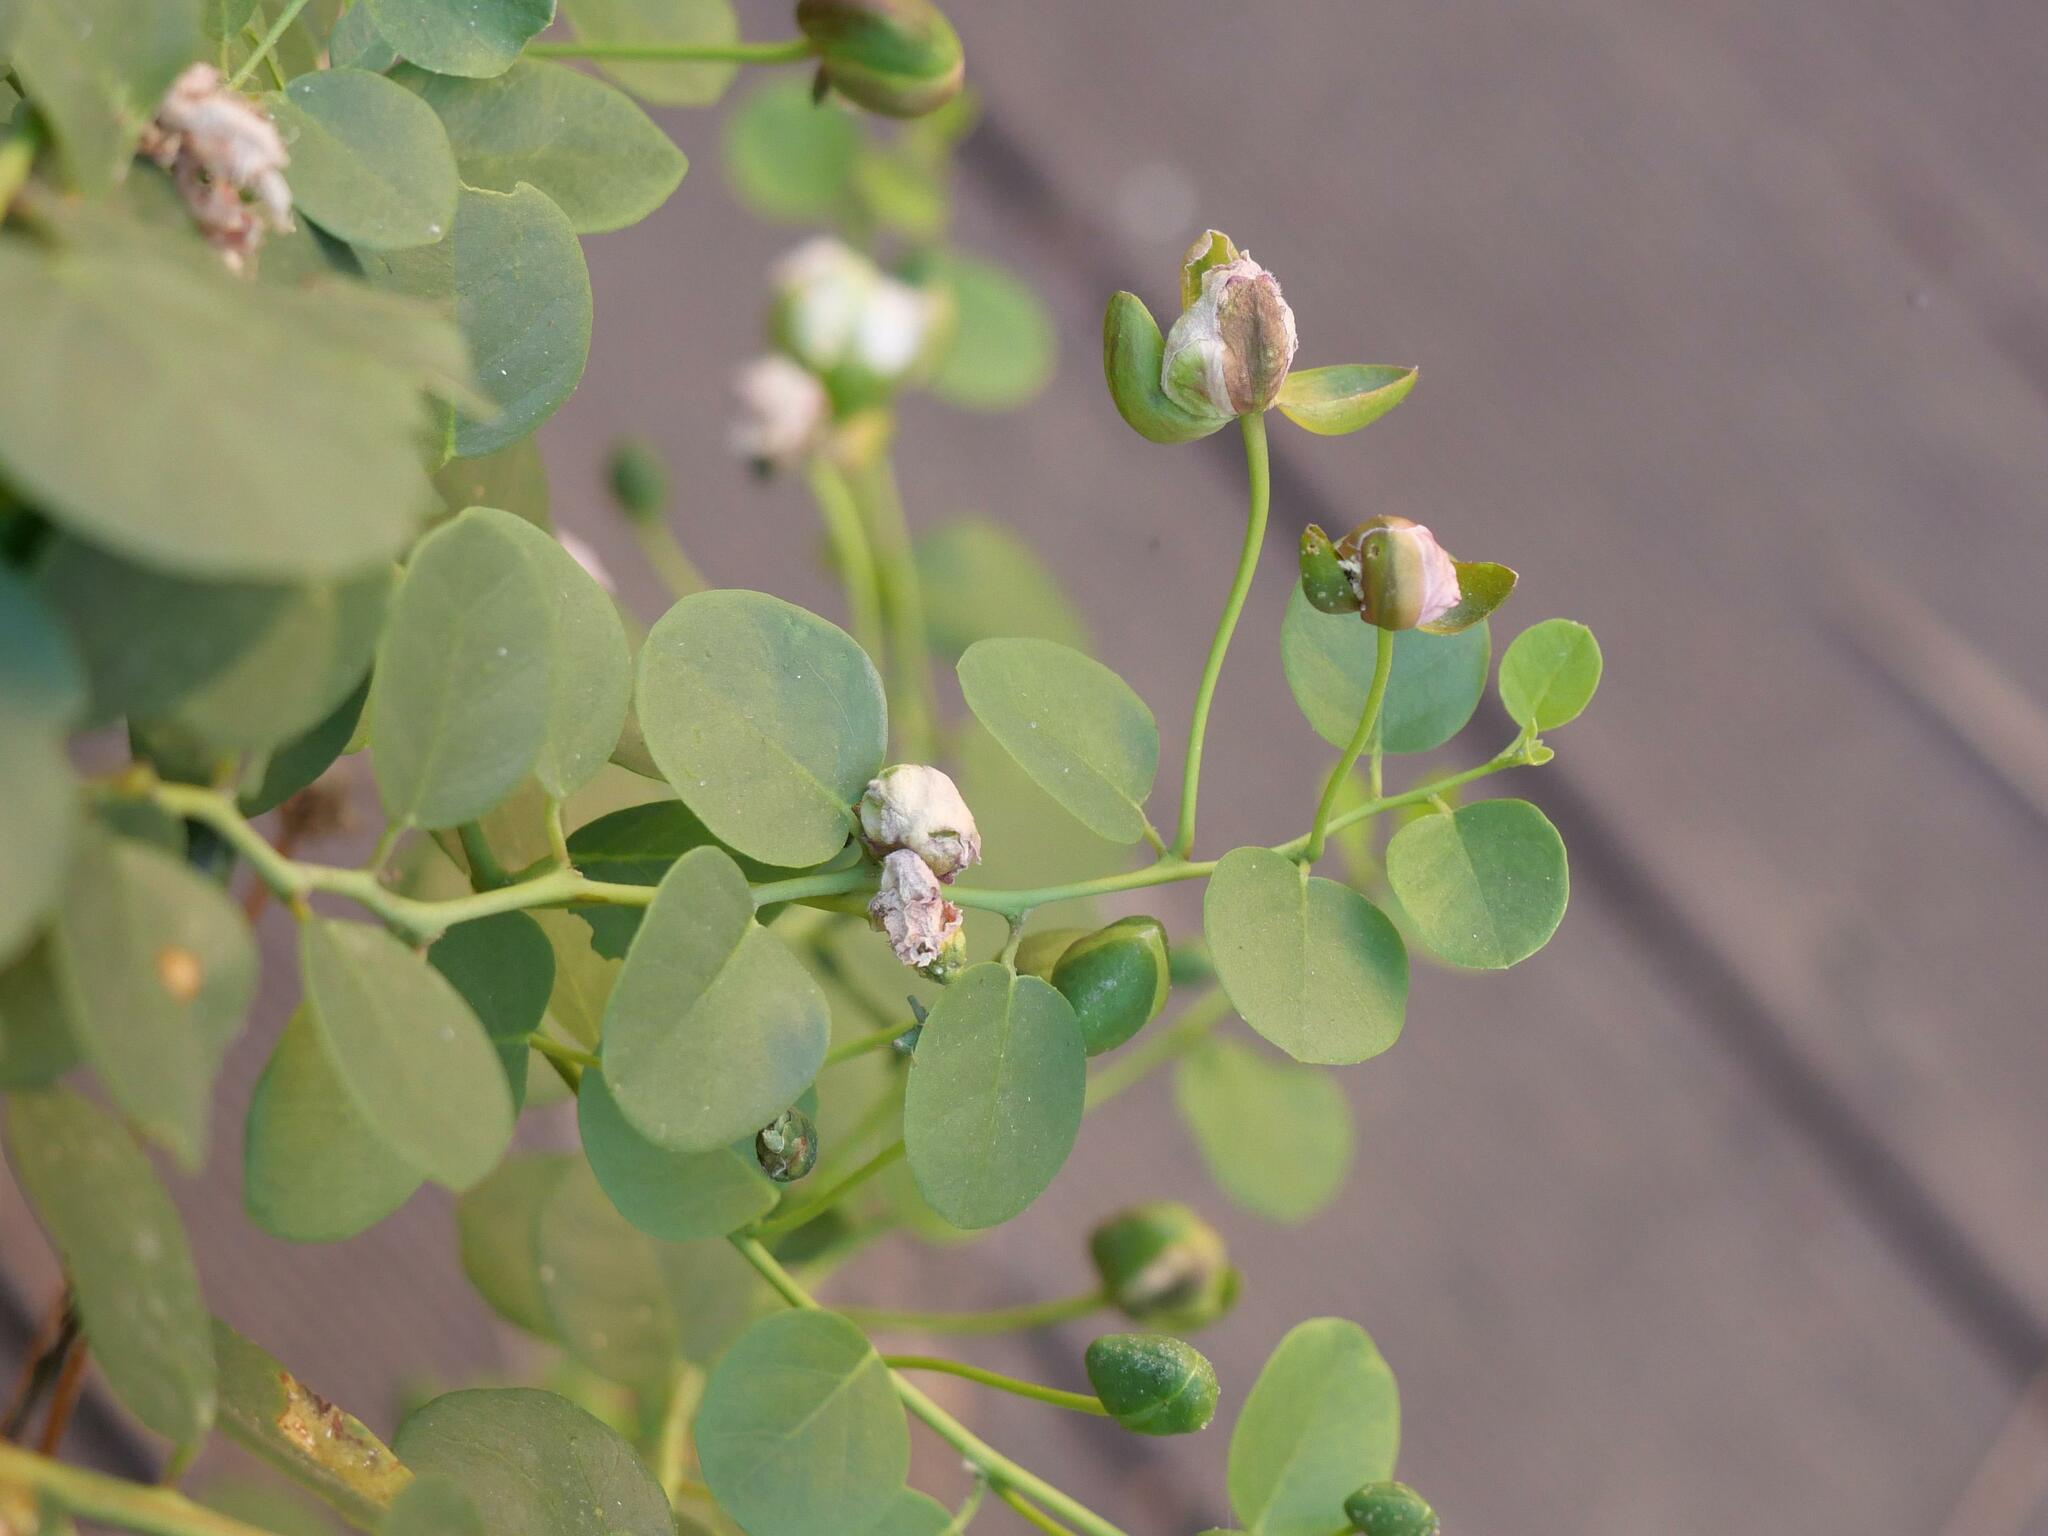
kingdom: Plantae
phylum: Tracheophyta
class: Magnoliopsida
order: Brassicales
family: Capparaceae
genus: Capparis
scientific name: Capparis orientalis
